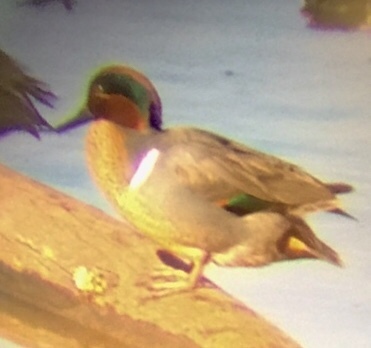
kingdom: Animalia
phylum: Chordata
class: Aves
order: Anseriformes
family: Anatidae
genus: Anas
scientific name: Anas crecca
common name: Eurasian teal
